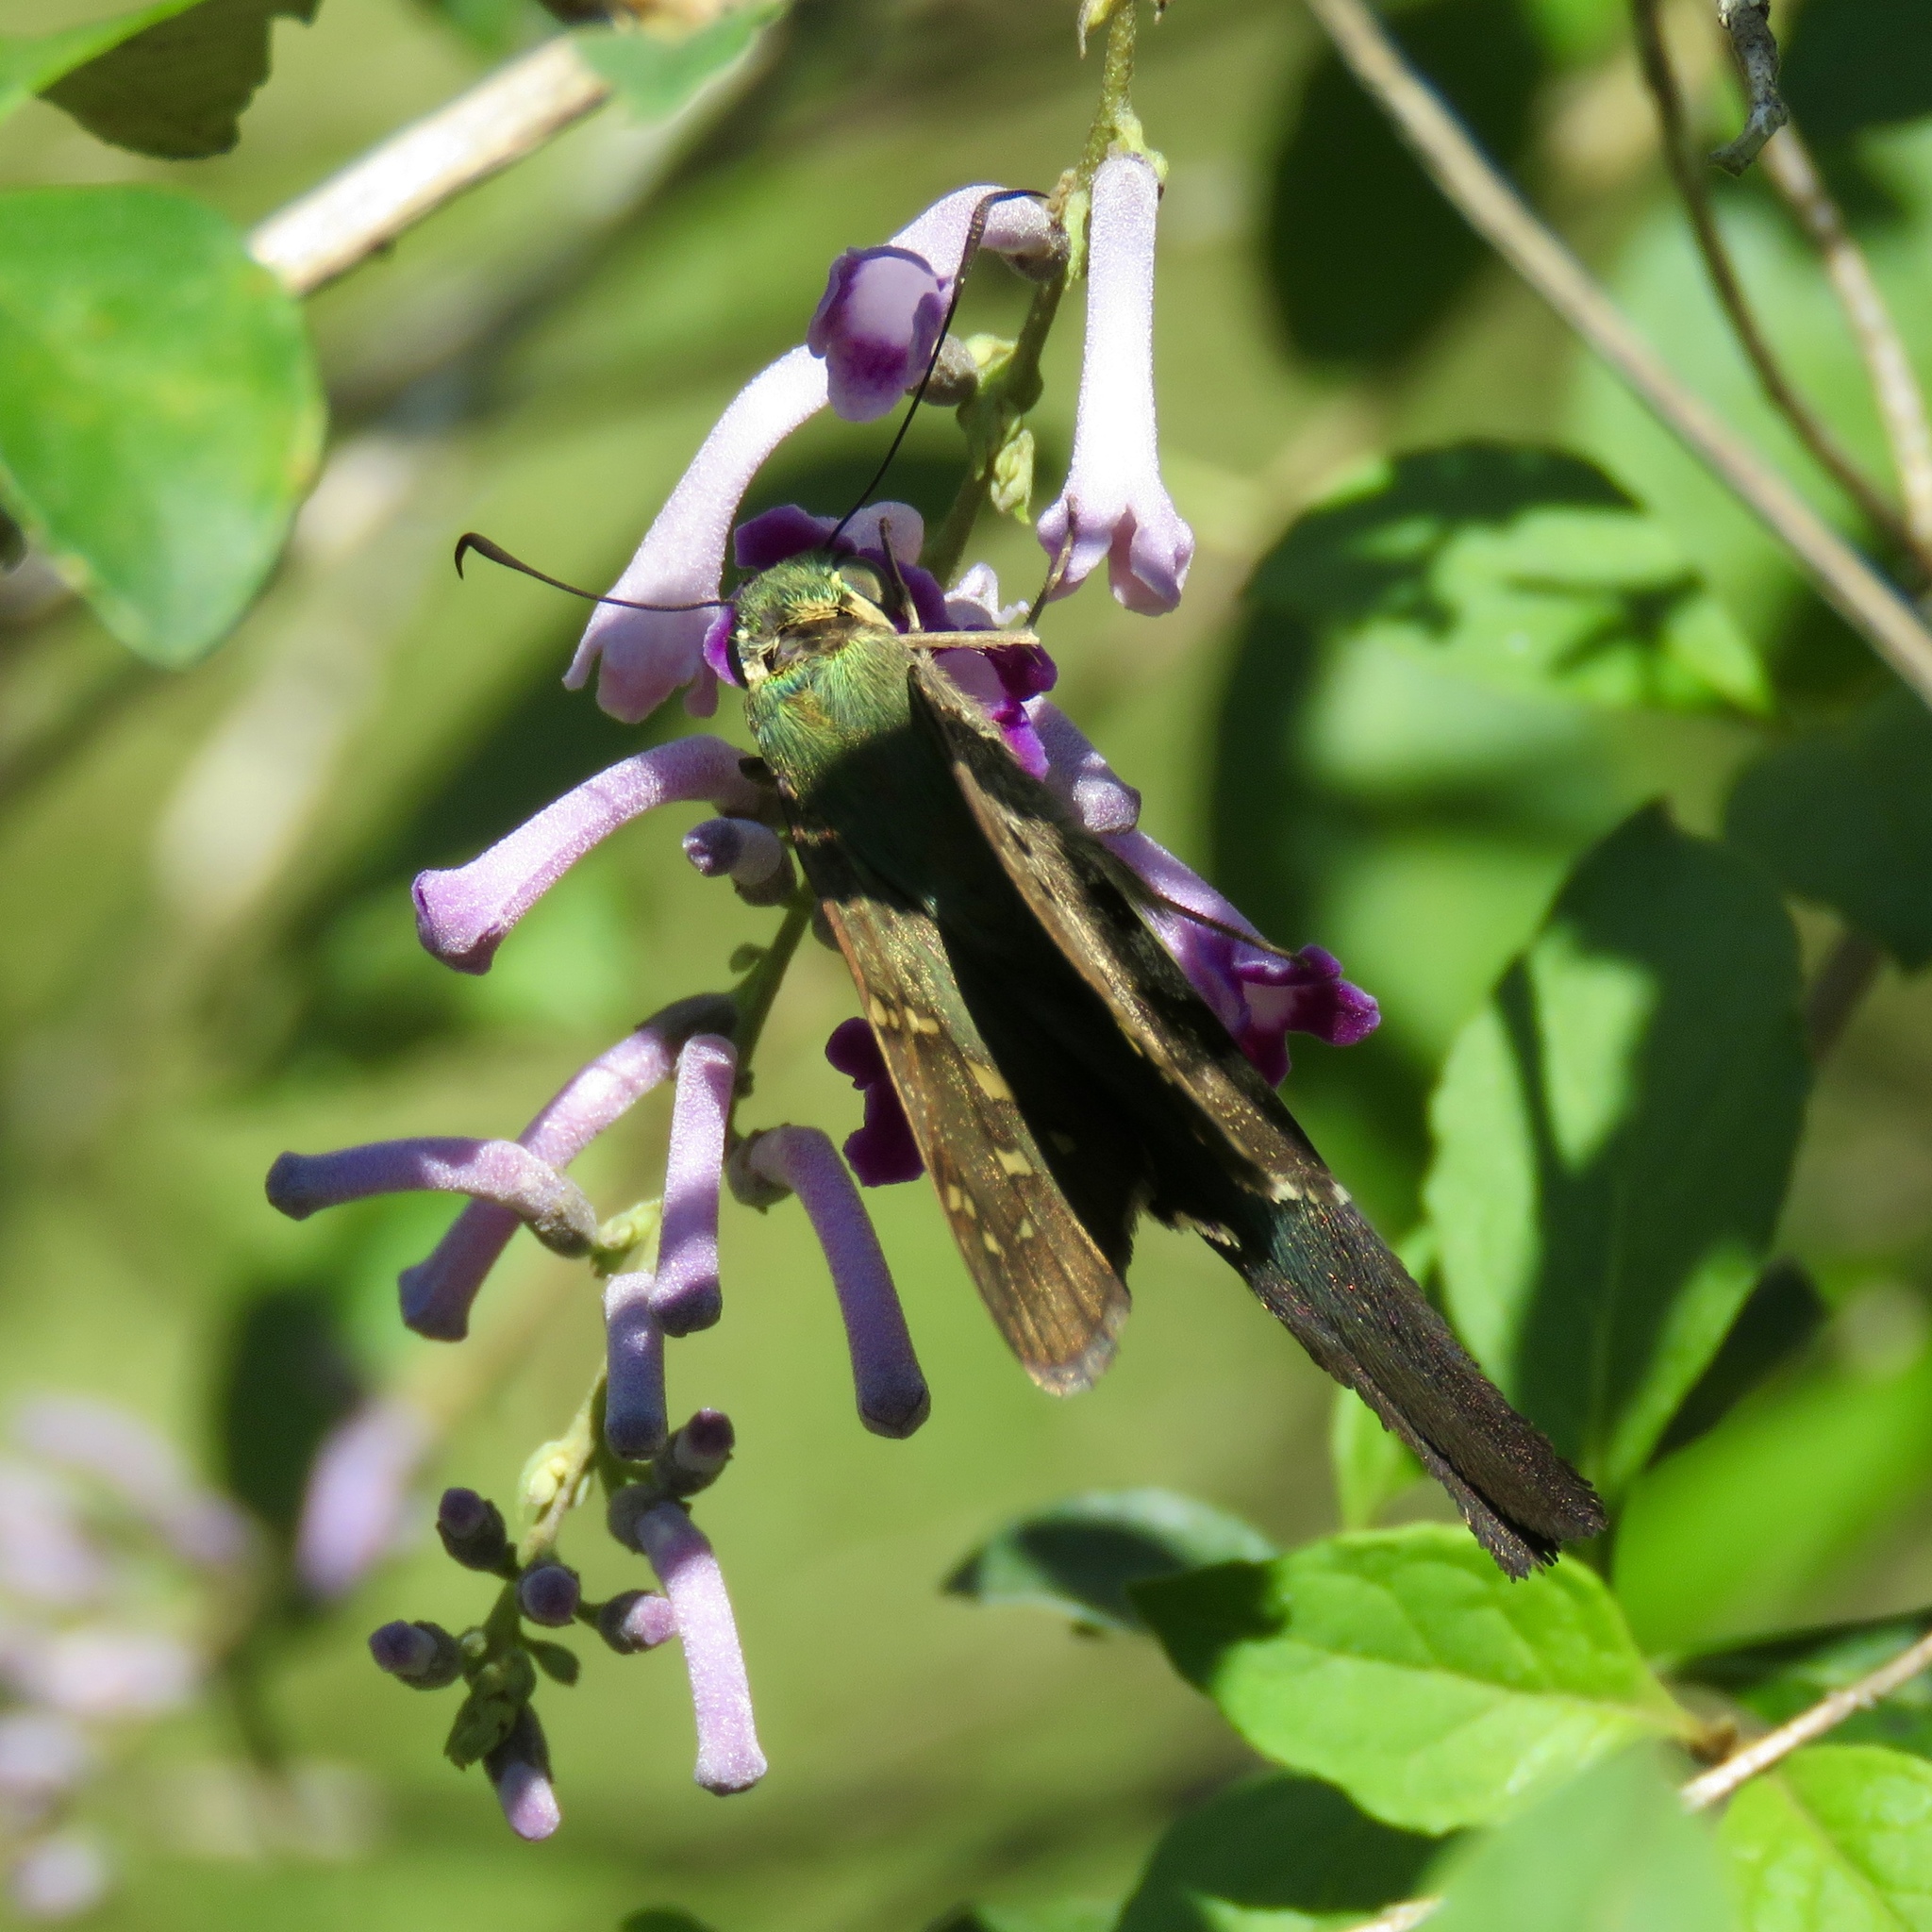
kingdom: Animalia
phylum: Arthropoda
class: Insecta
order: Lepidoptera
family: Hesperiidae
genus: Urbanus
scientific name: Urbanus proteus
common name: Long-tailed skipper
